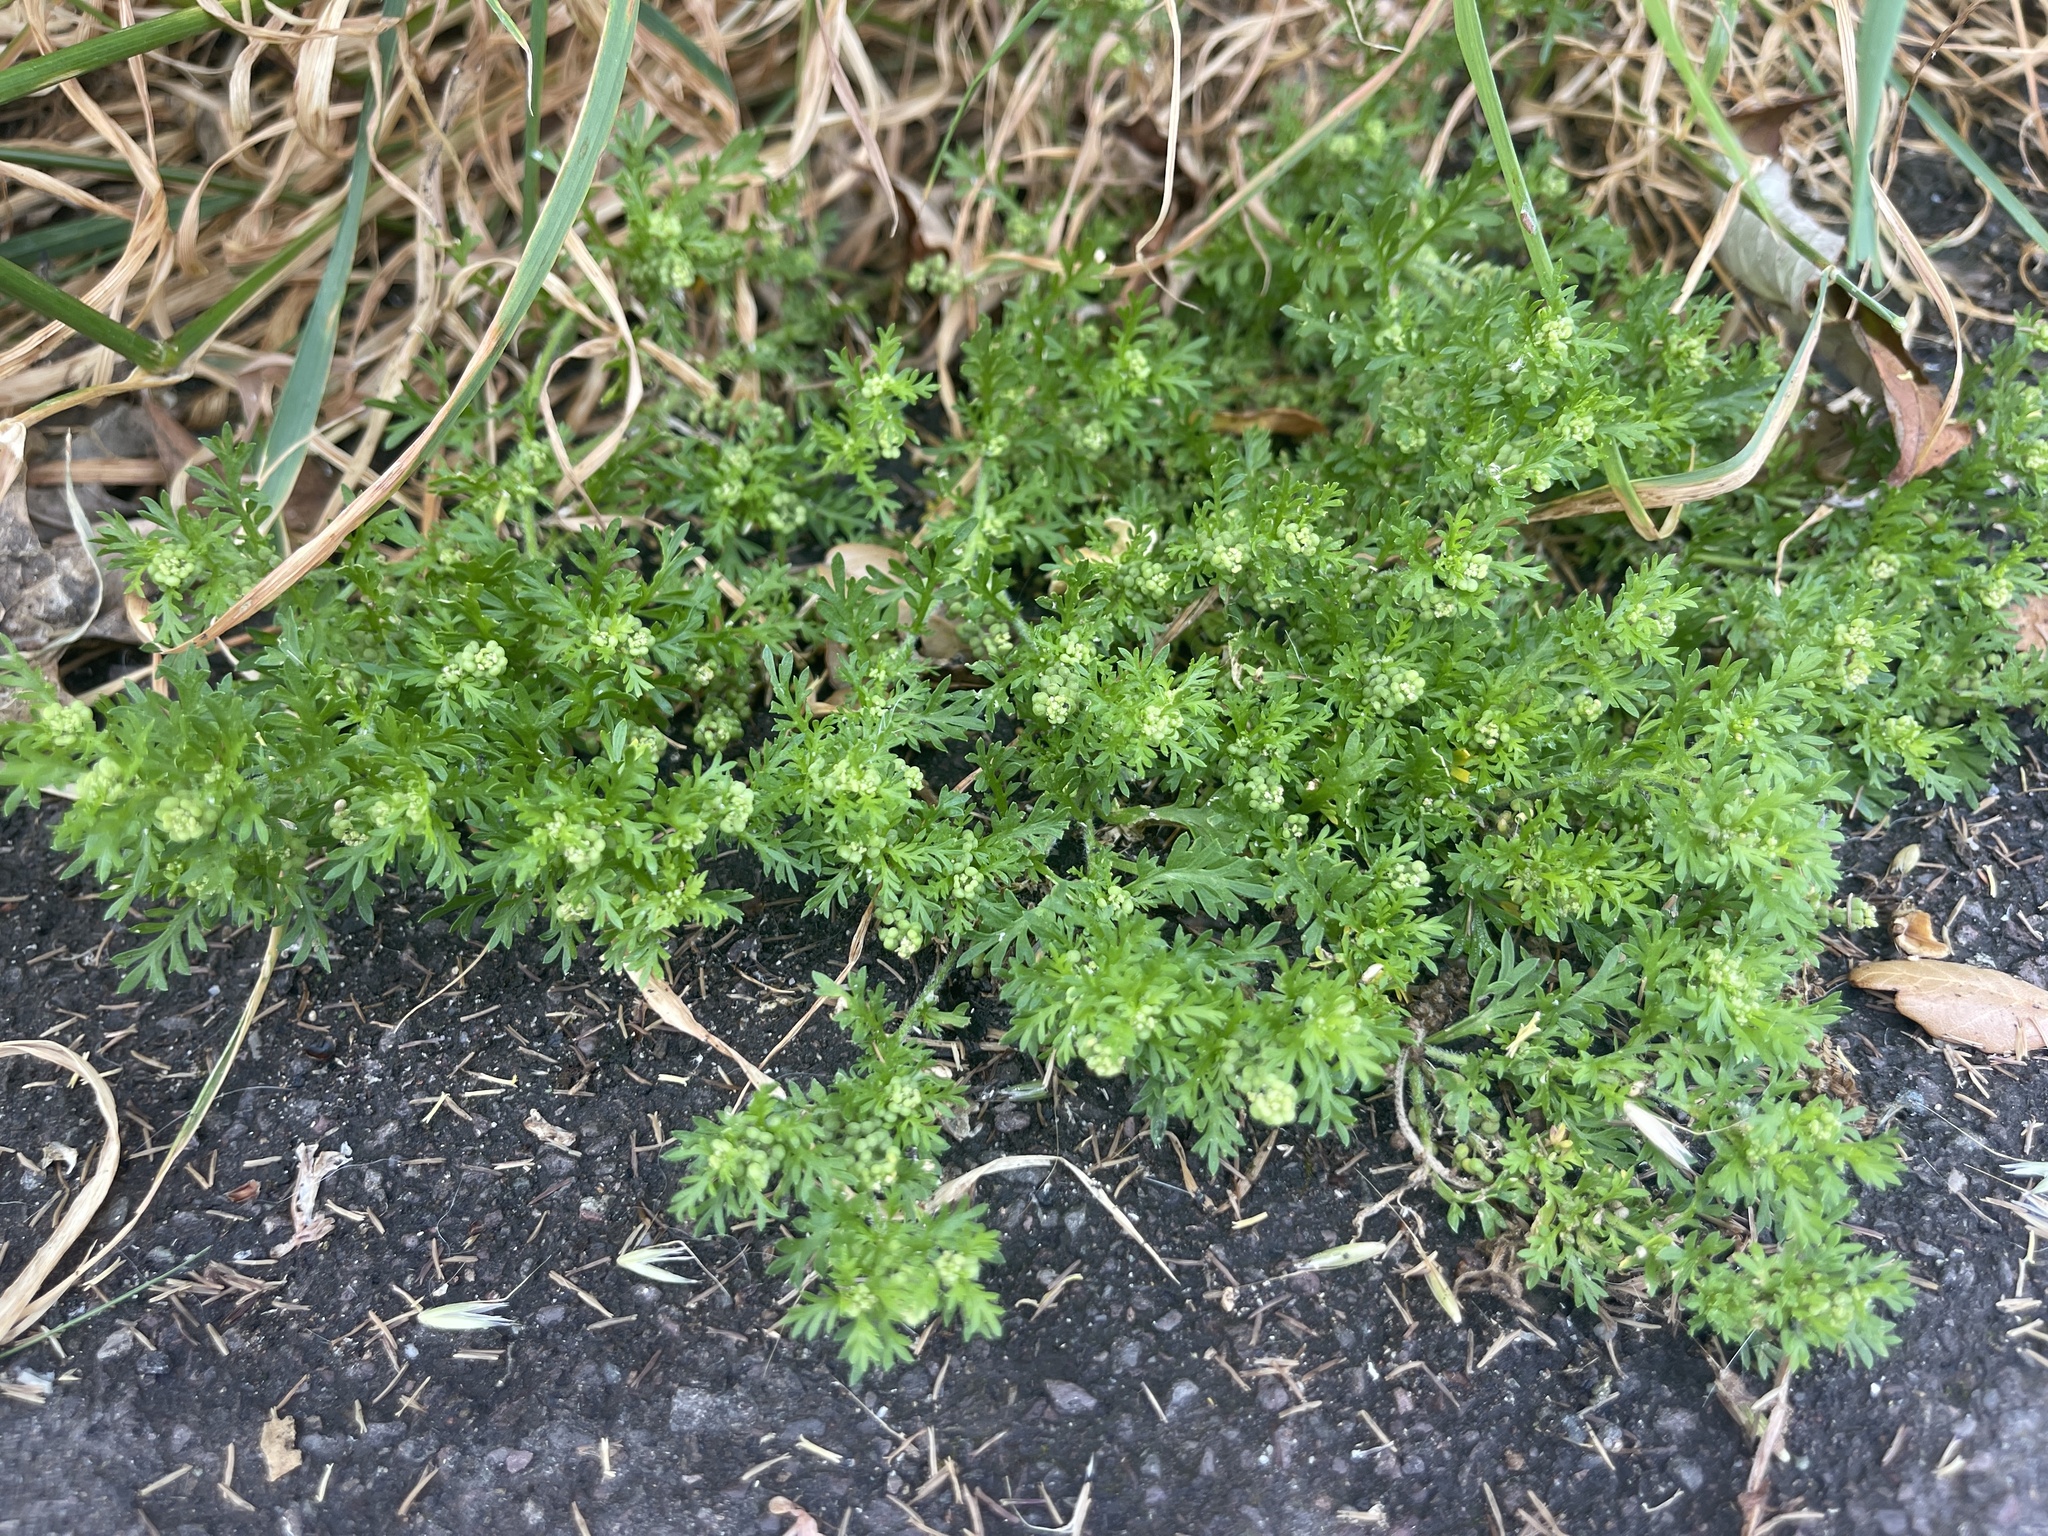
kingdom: Plantae
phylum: Tracheophyta
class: Magnoliopsida
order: Brassicales
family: Brassicaceae
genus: Lepidium
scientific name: Lepidium didymum
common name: Lesser swinecress
